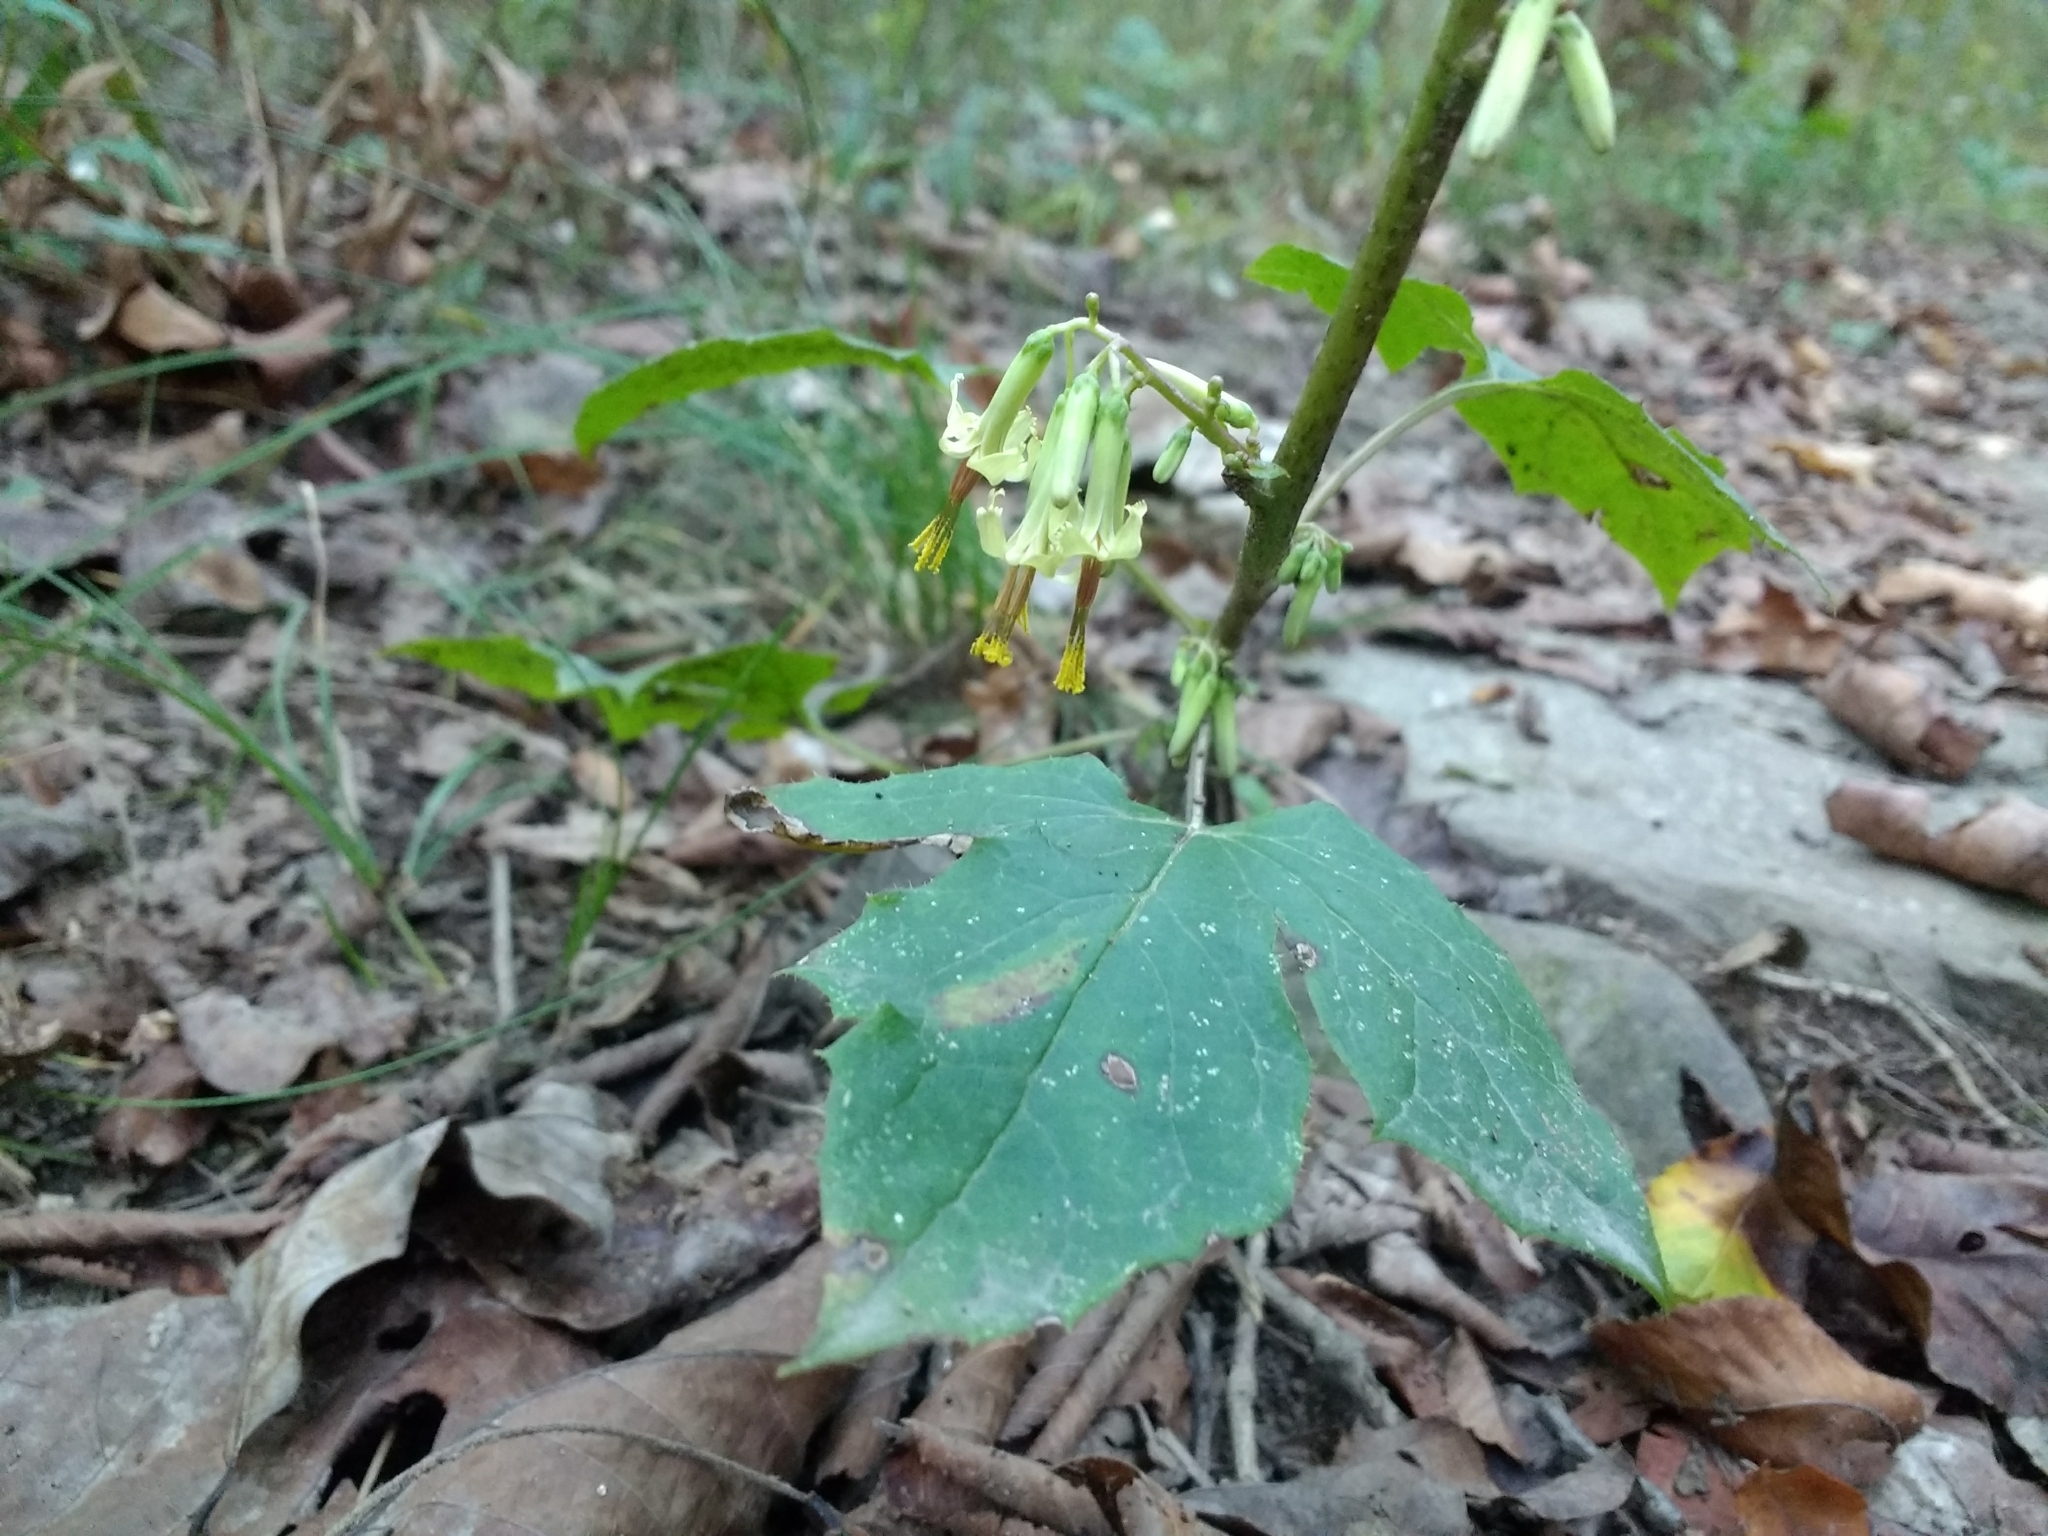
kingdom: Plantae
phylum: Tracheophyta
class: Magnoliopsida
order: Asterales
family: Asteraceae
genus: Nabalus
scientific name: Nabalus altissima
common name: Tall rattlesnakeroot
